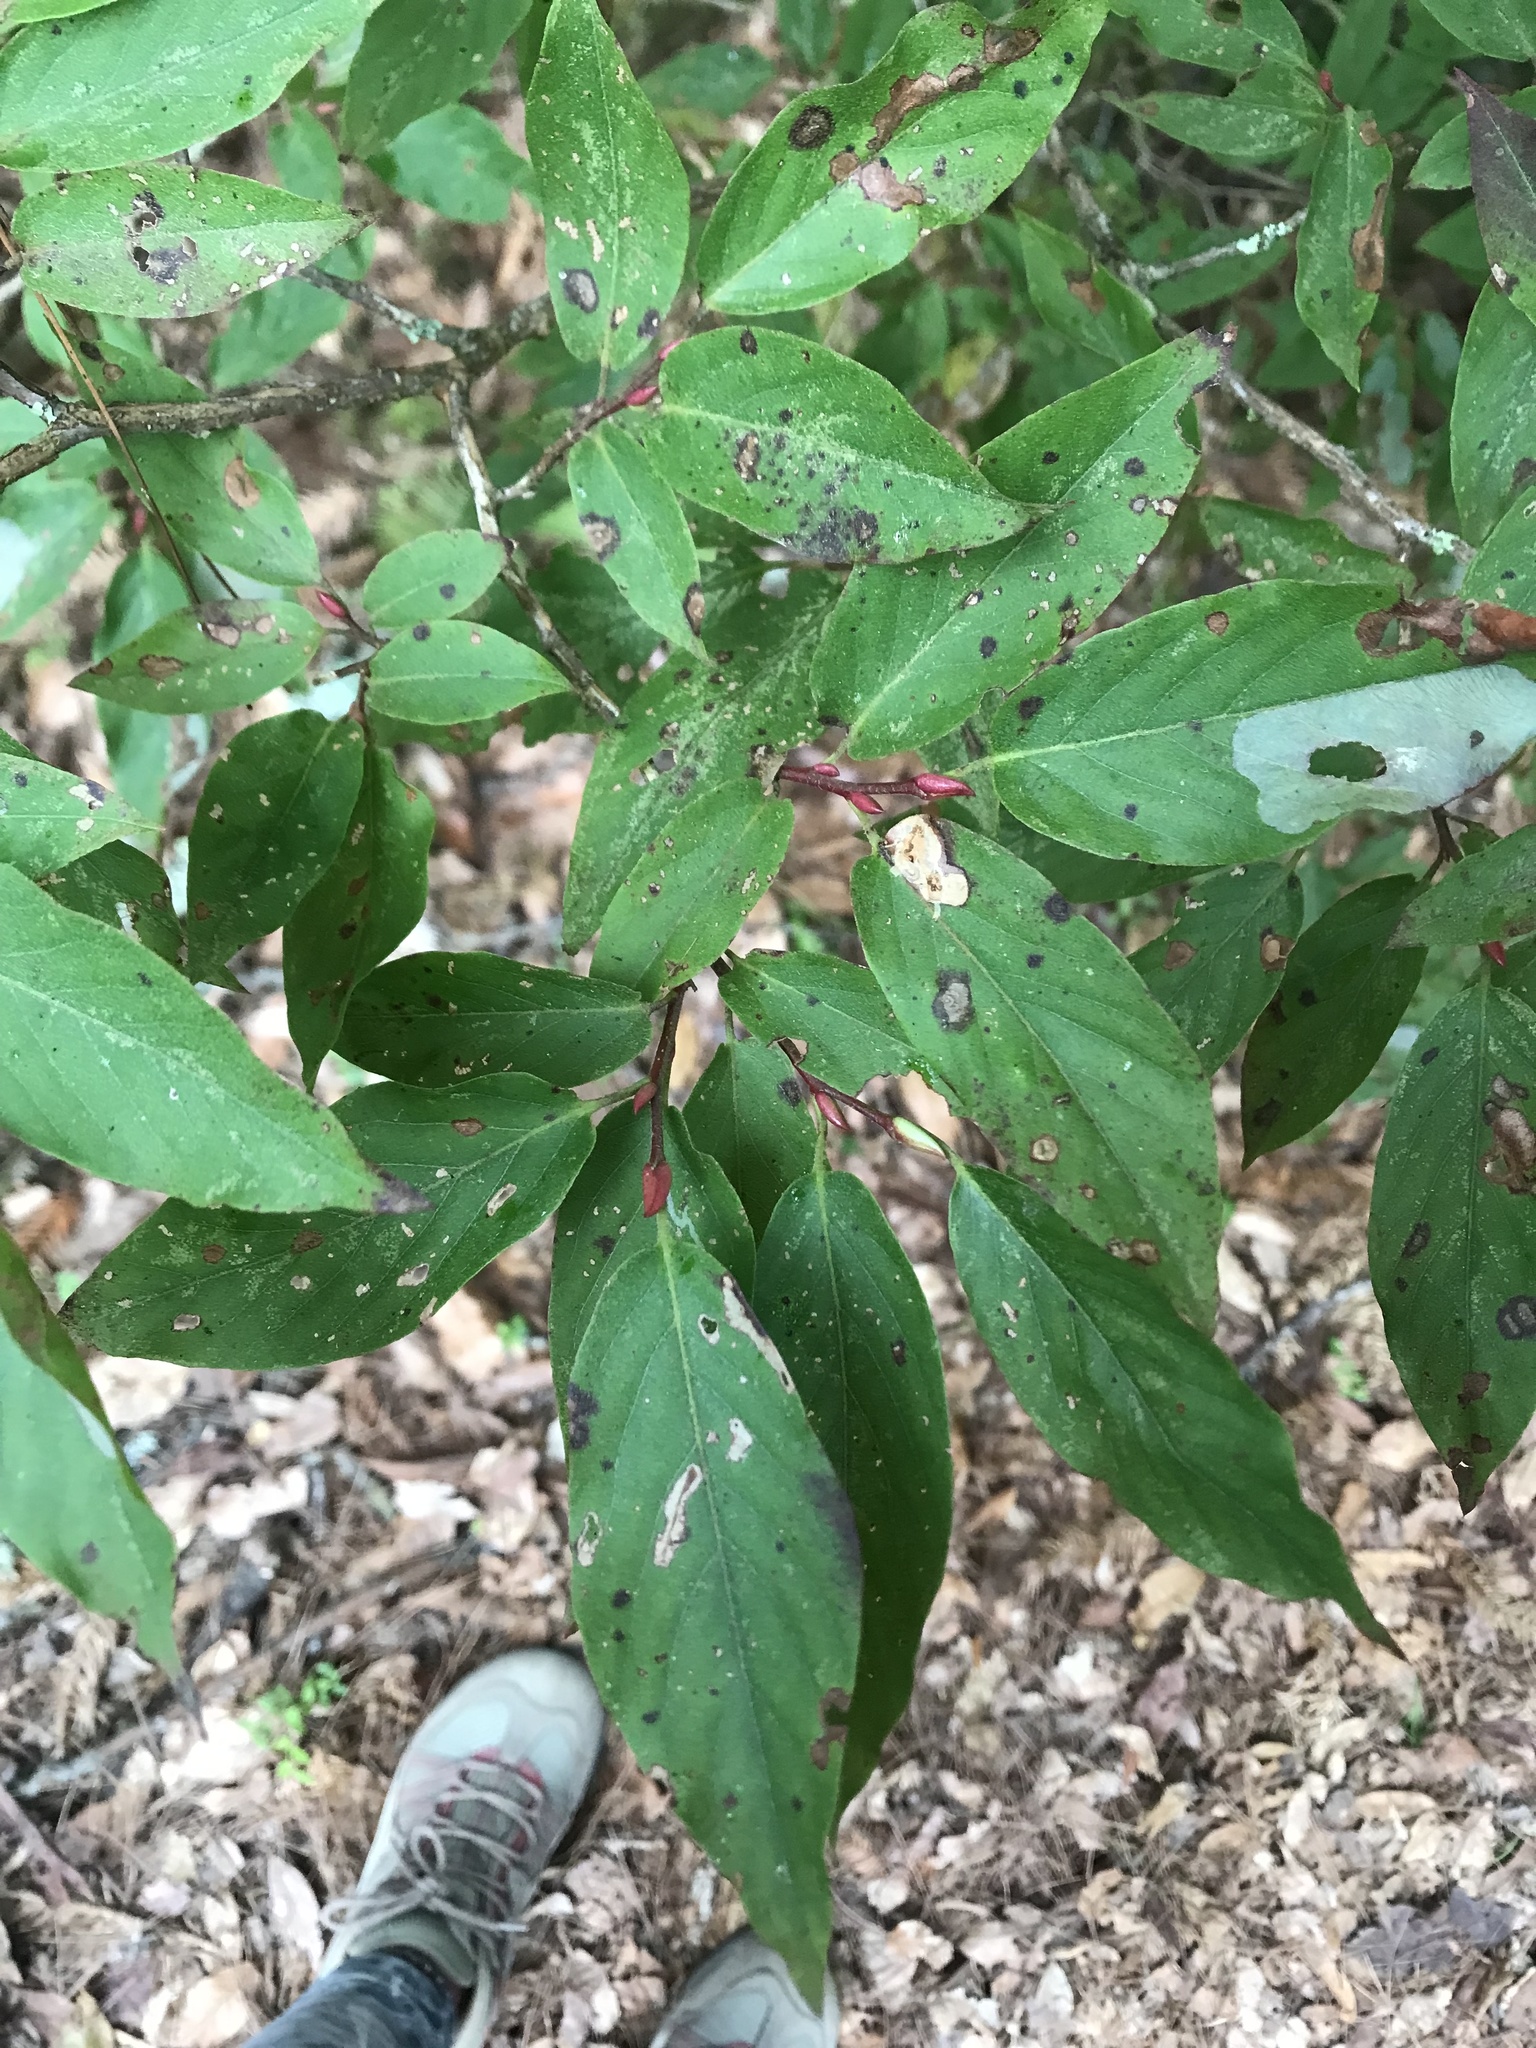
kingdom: Plantae
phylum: Tracheophyta
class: Magnoliopsida
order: Ericales
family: Ericaceae
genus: Lyonia
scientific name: Lyonia ovalifolia
